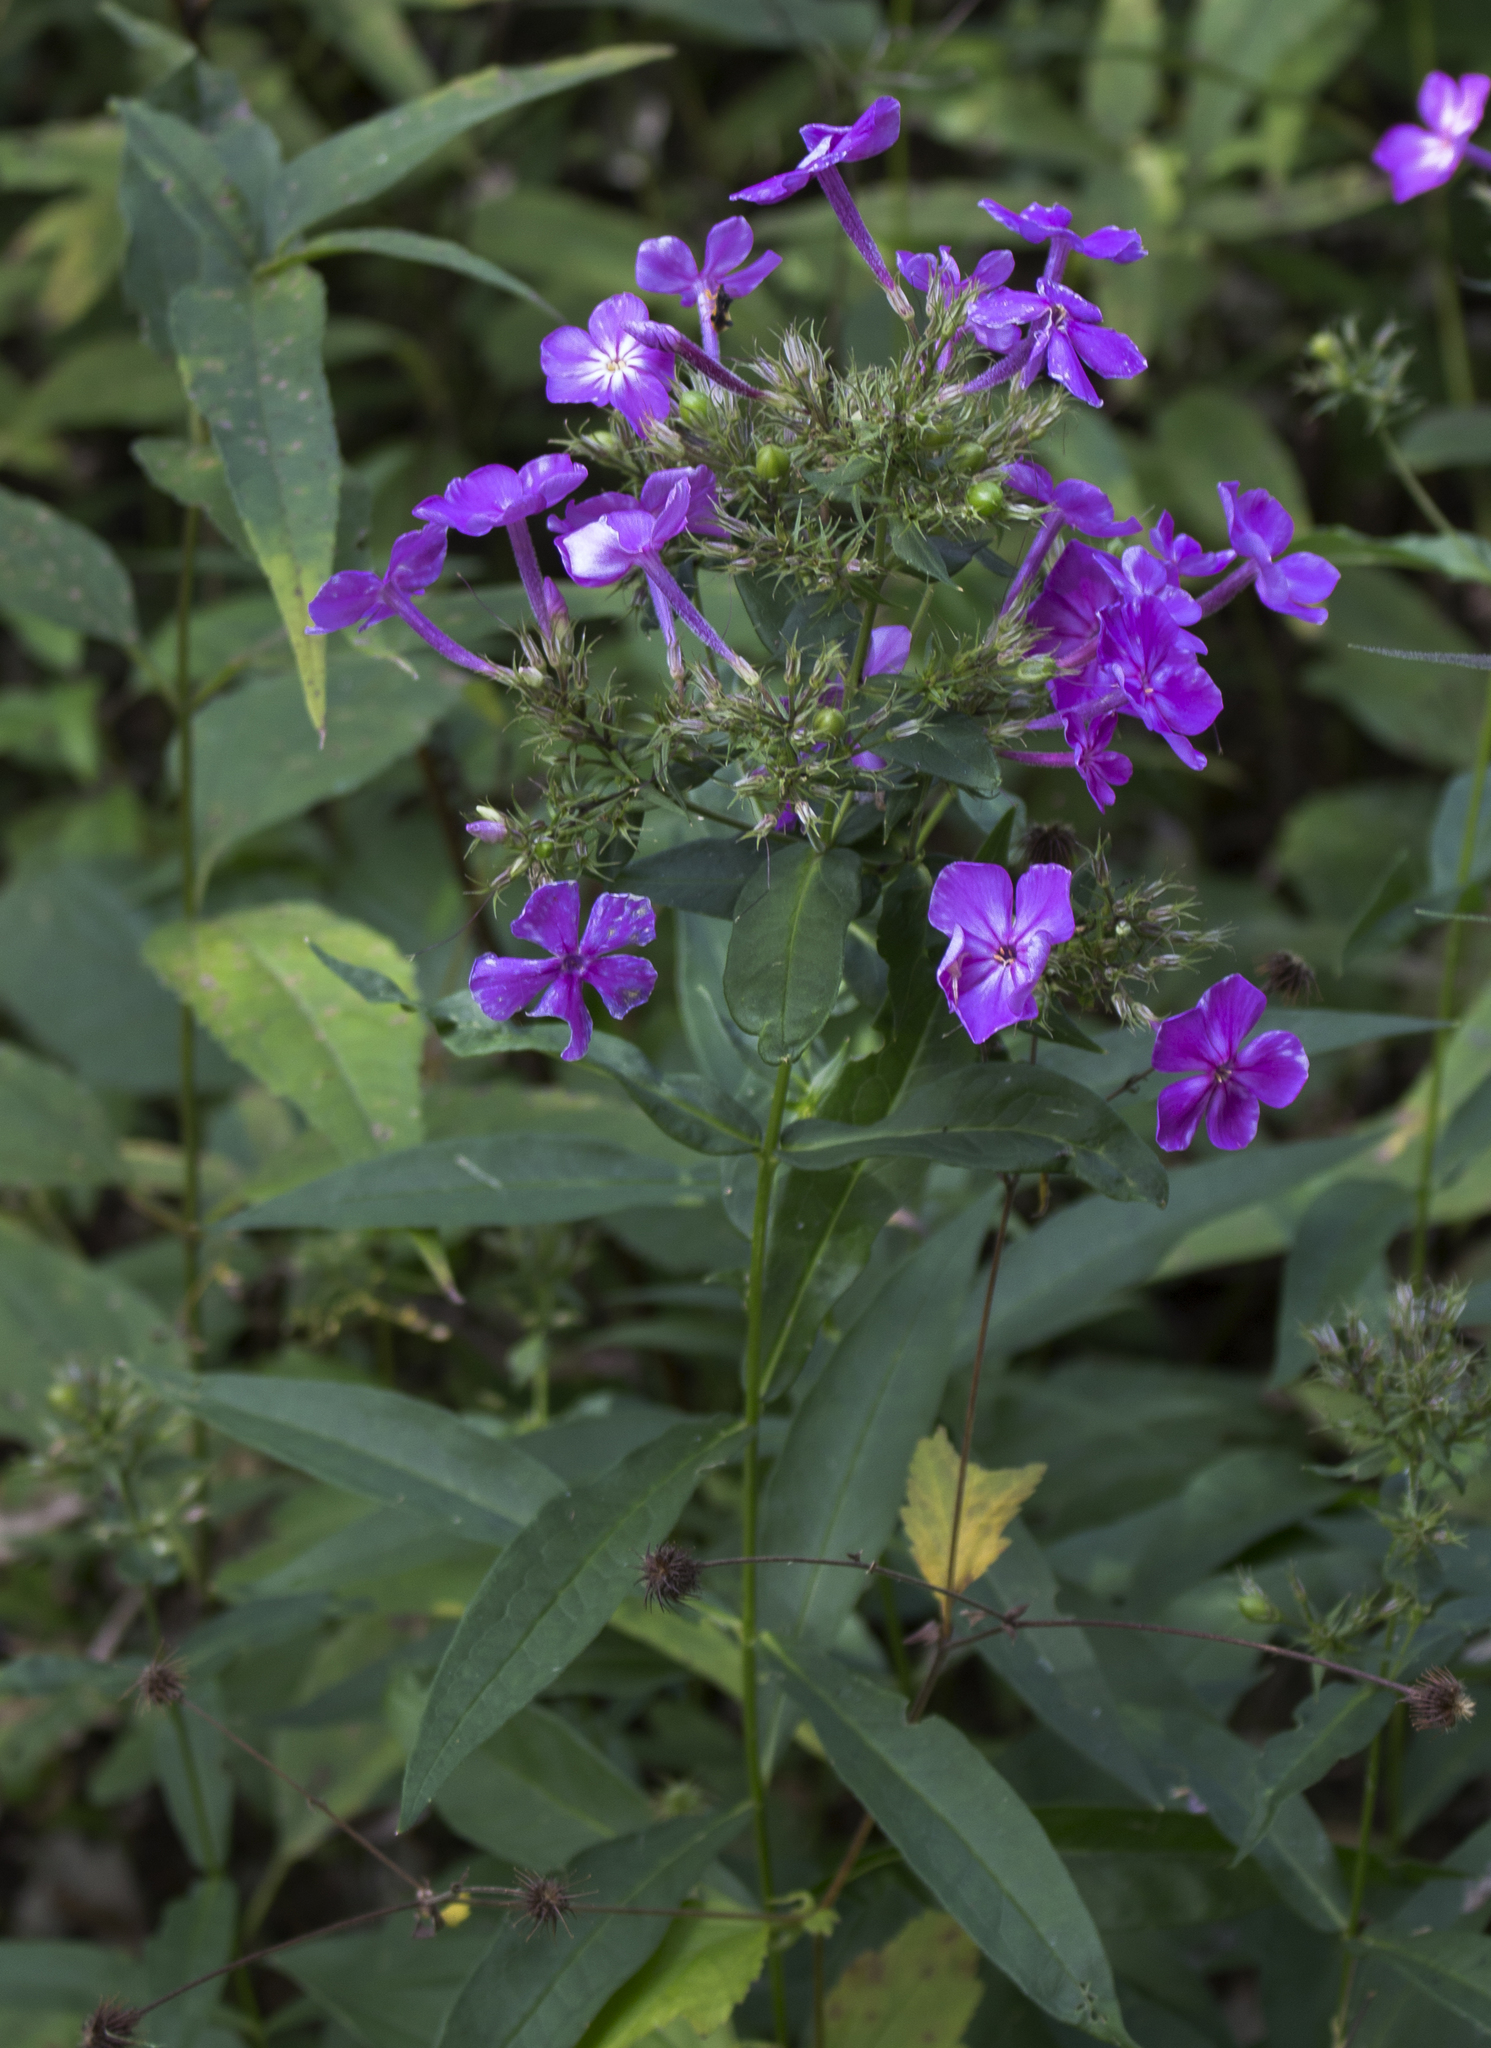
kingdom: Plantae
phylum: Tracheophyta
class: Magnoliopsida
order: Ericales
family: Polemoniaceae
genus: Phlox
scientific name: Phlox paniculata
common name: Fall phlox
